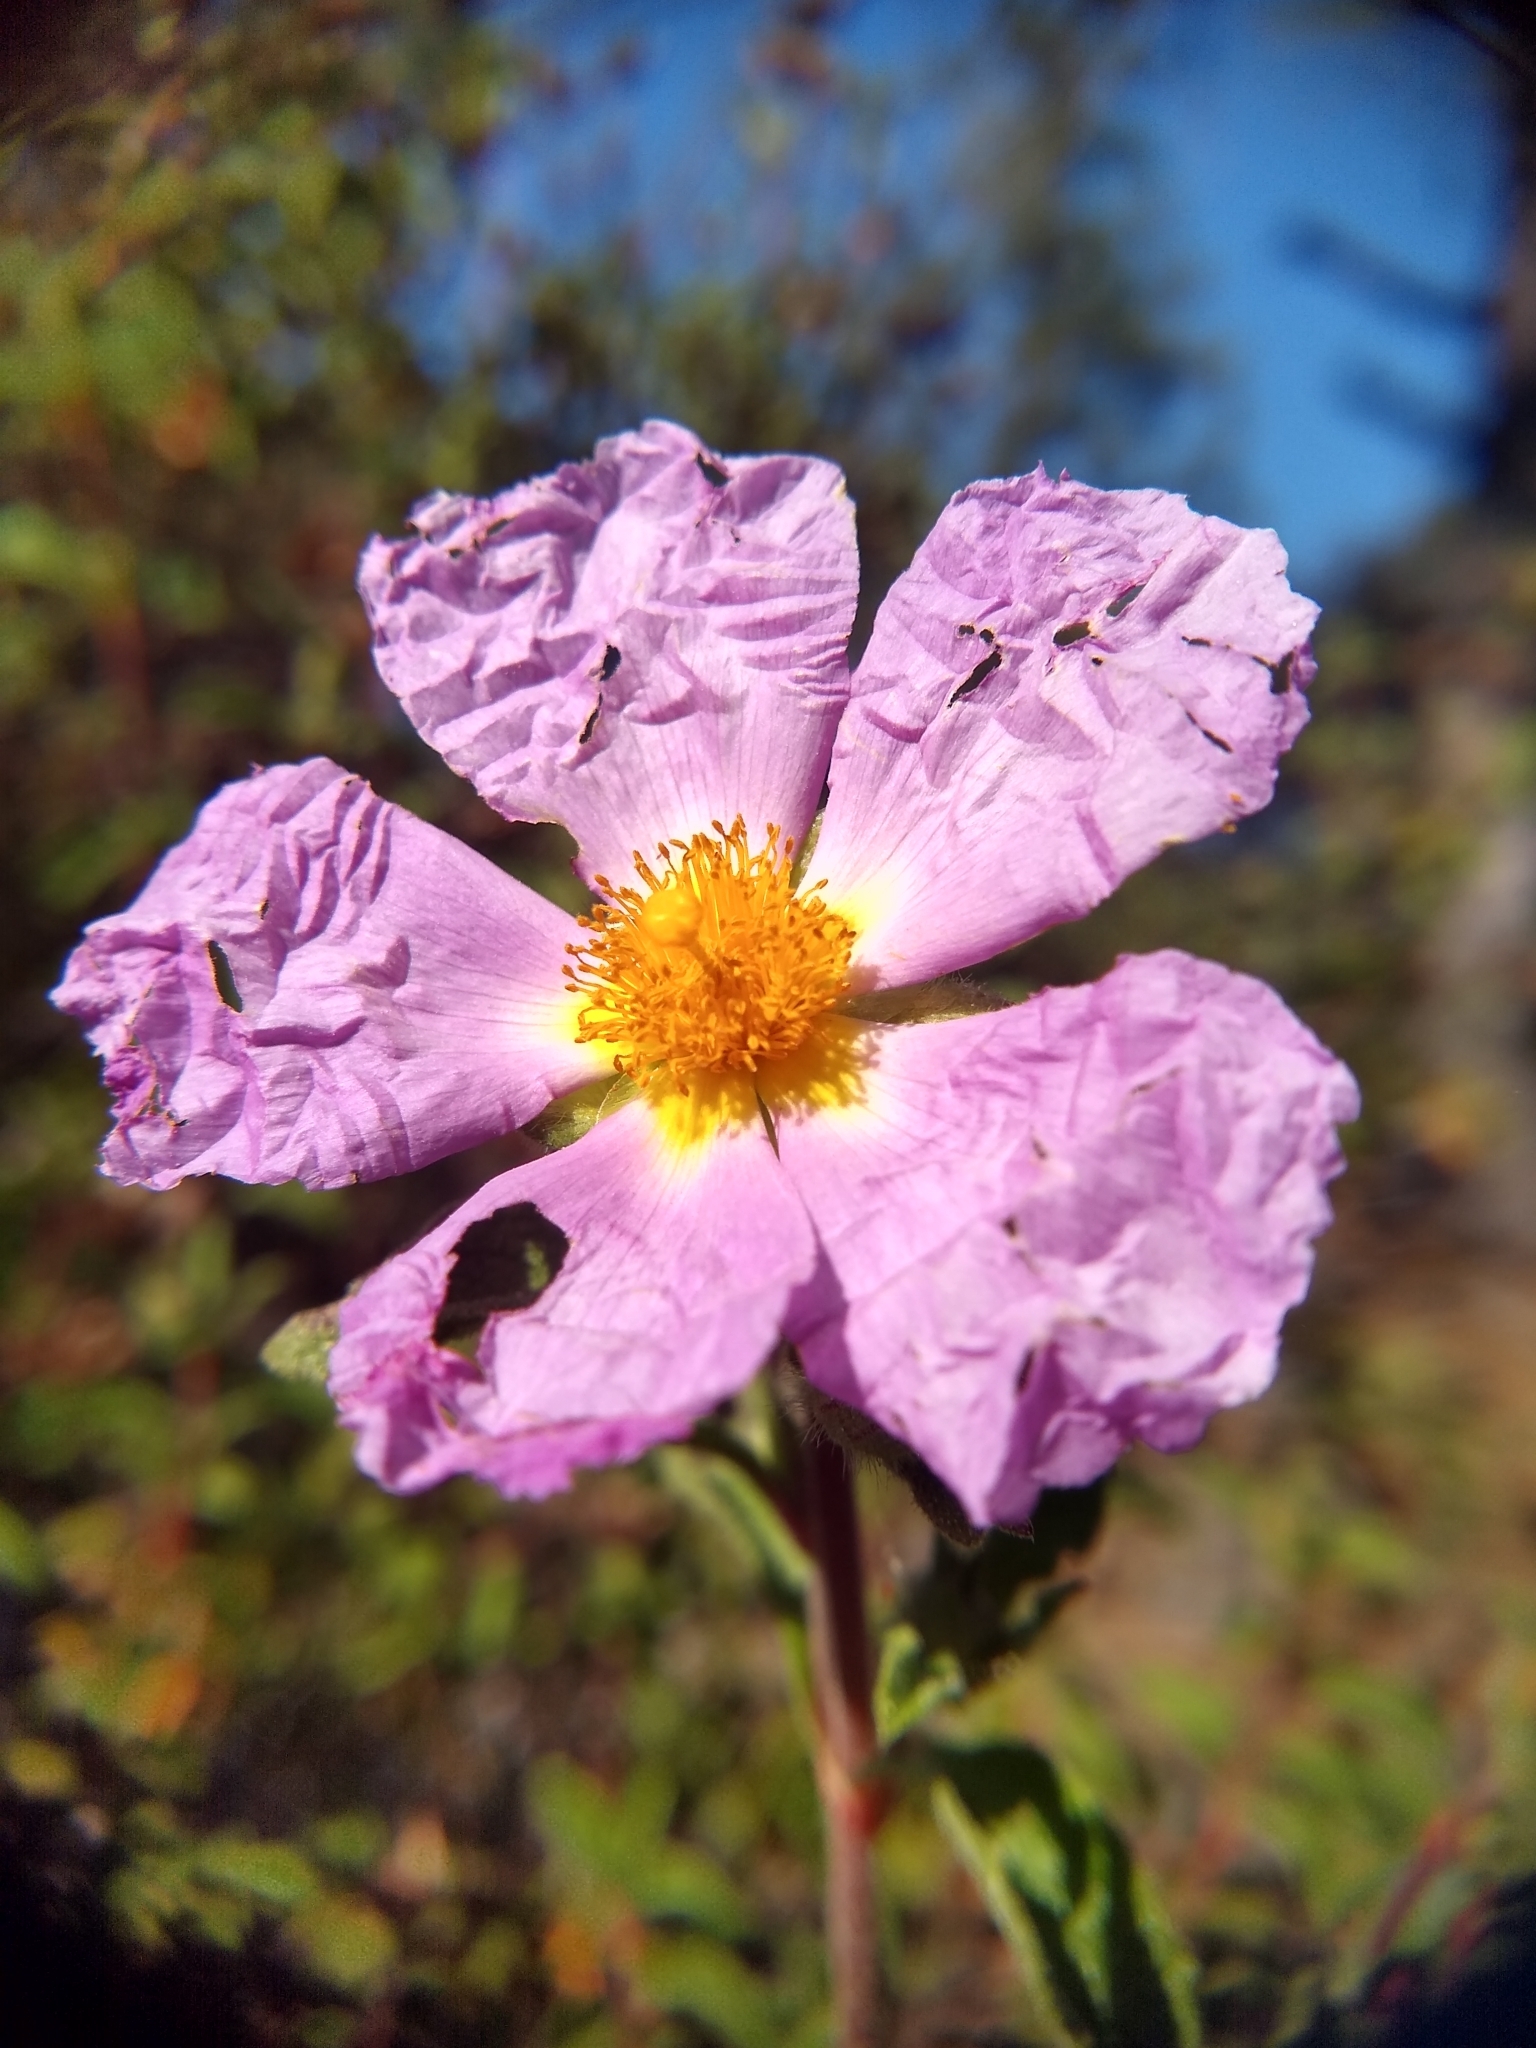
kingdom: Plantae
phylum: Tracheophyta
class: Magnoliopsida
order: Malvales
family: Cistaceae
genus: Cistus
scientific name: Cistus creticus
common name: Cretan rockrose
